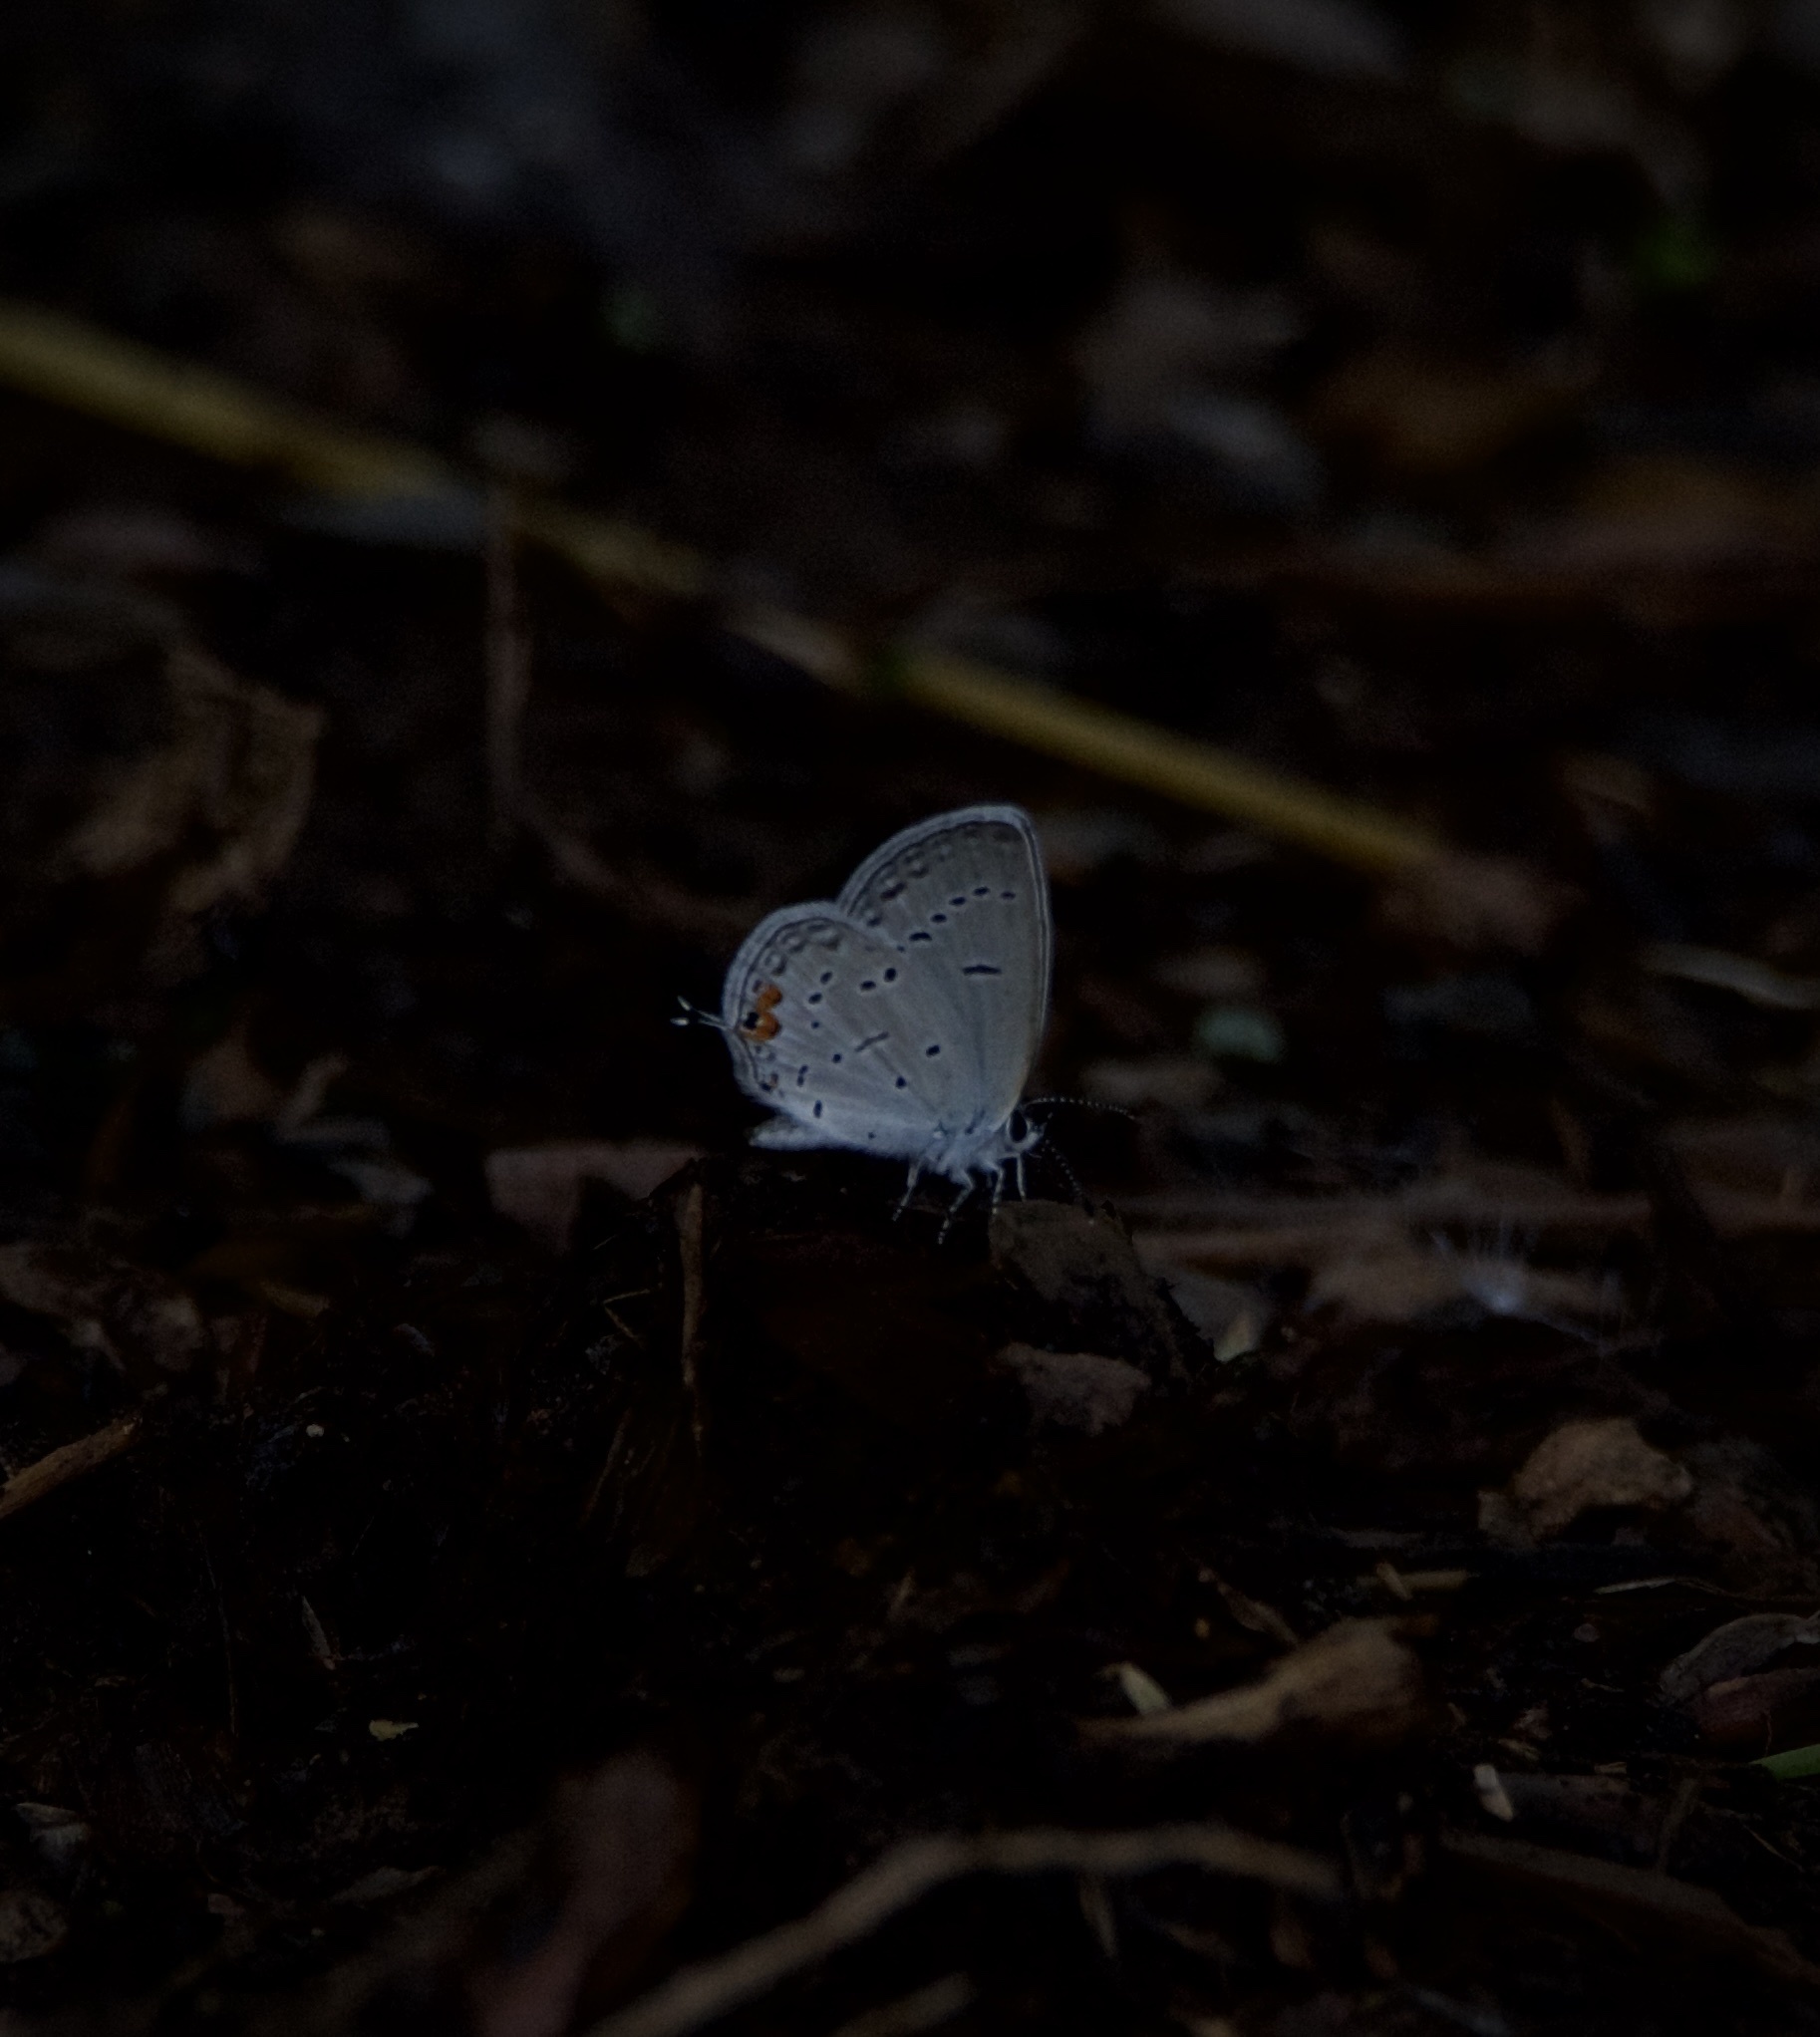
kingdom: Animalia
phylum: Arthropoda
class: Insecta
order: Lepidoptera
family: Lycaenidae
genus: Elkalyce
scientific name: Elkalyce comyntas
